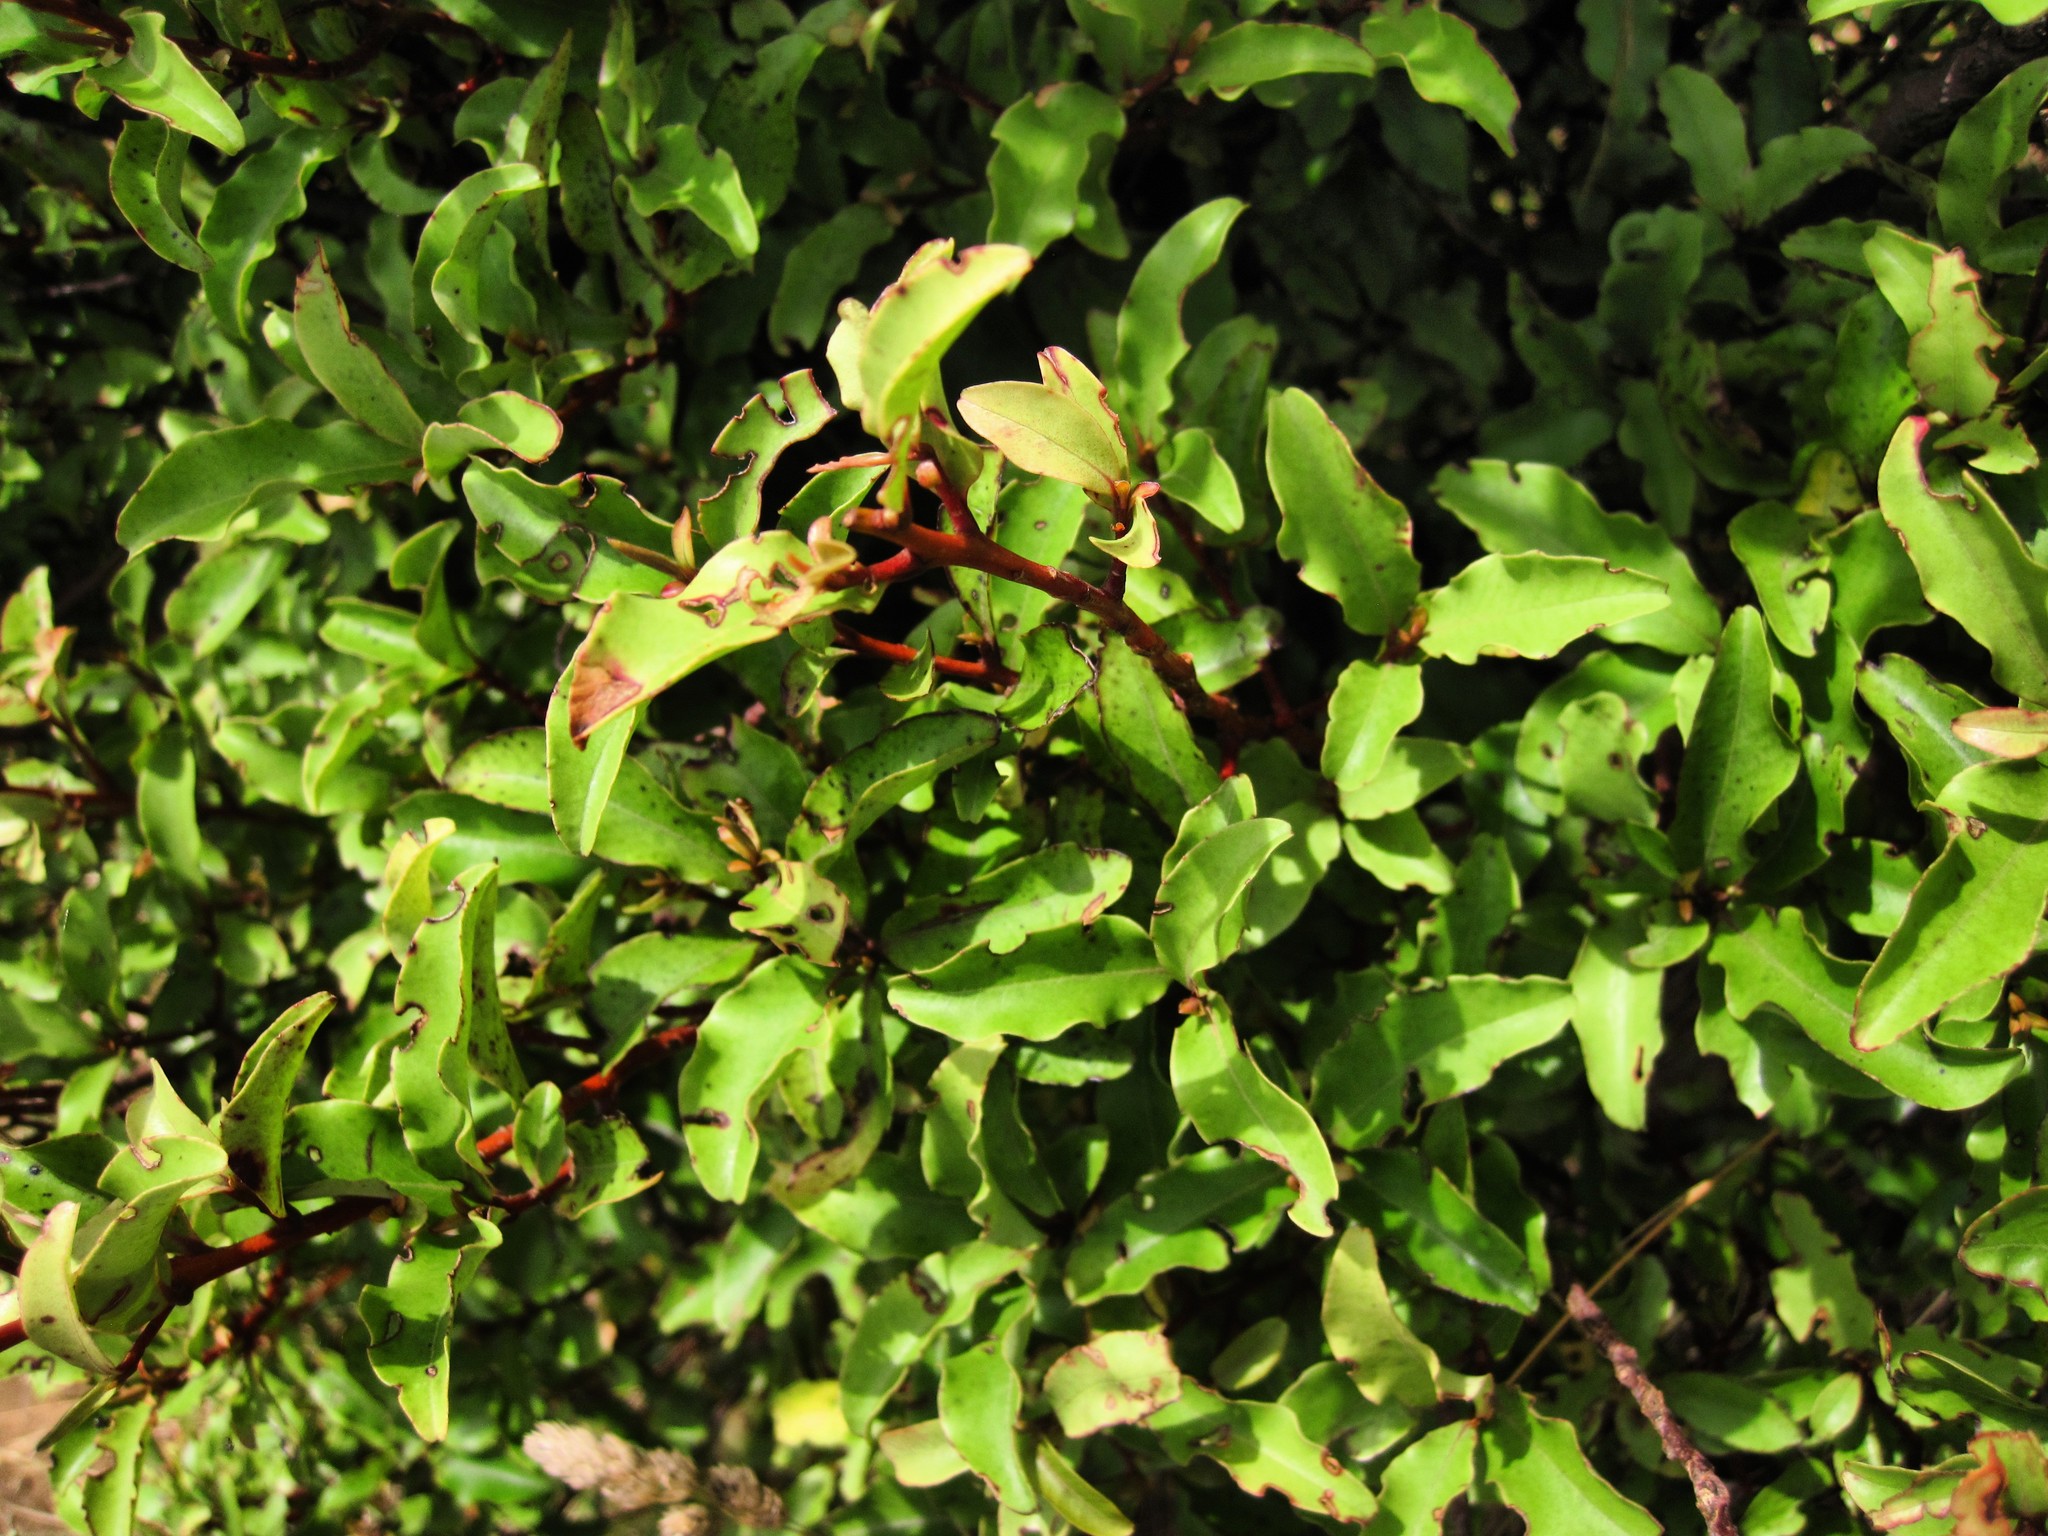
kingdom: Plantae
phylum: Tracheophyta
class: Magnoliopsida
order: Ericales
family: Primulaceae
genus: Myrsine
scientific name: Myrsine australis
